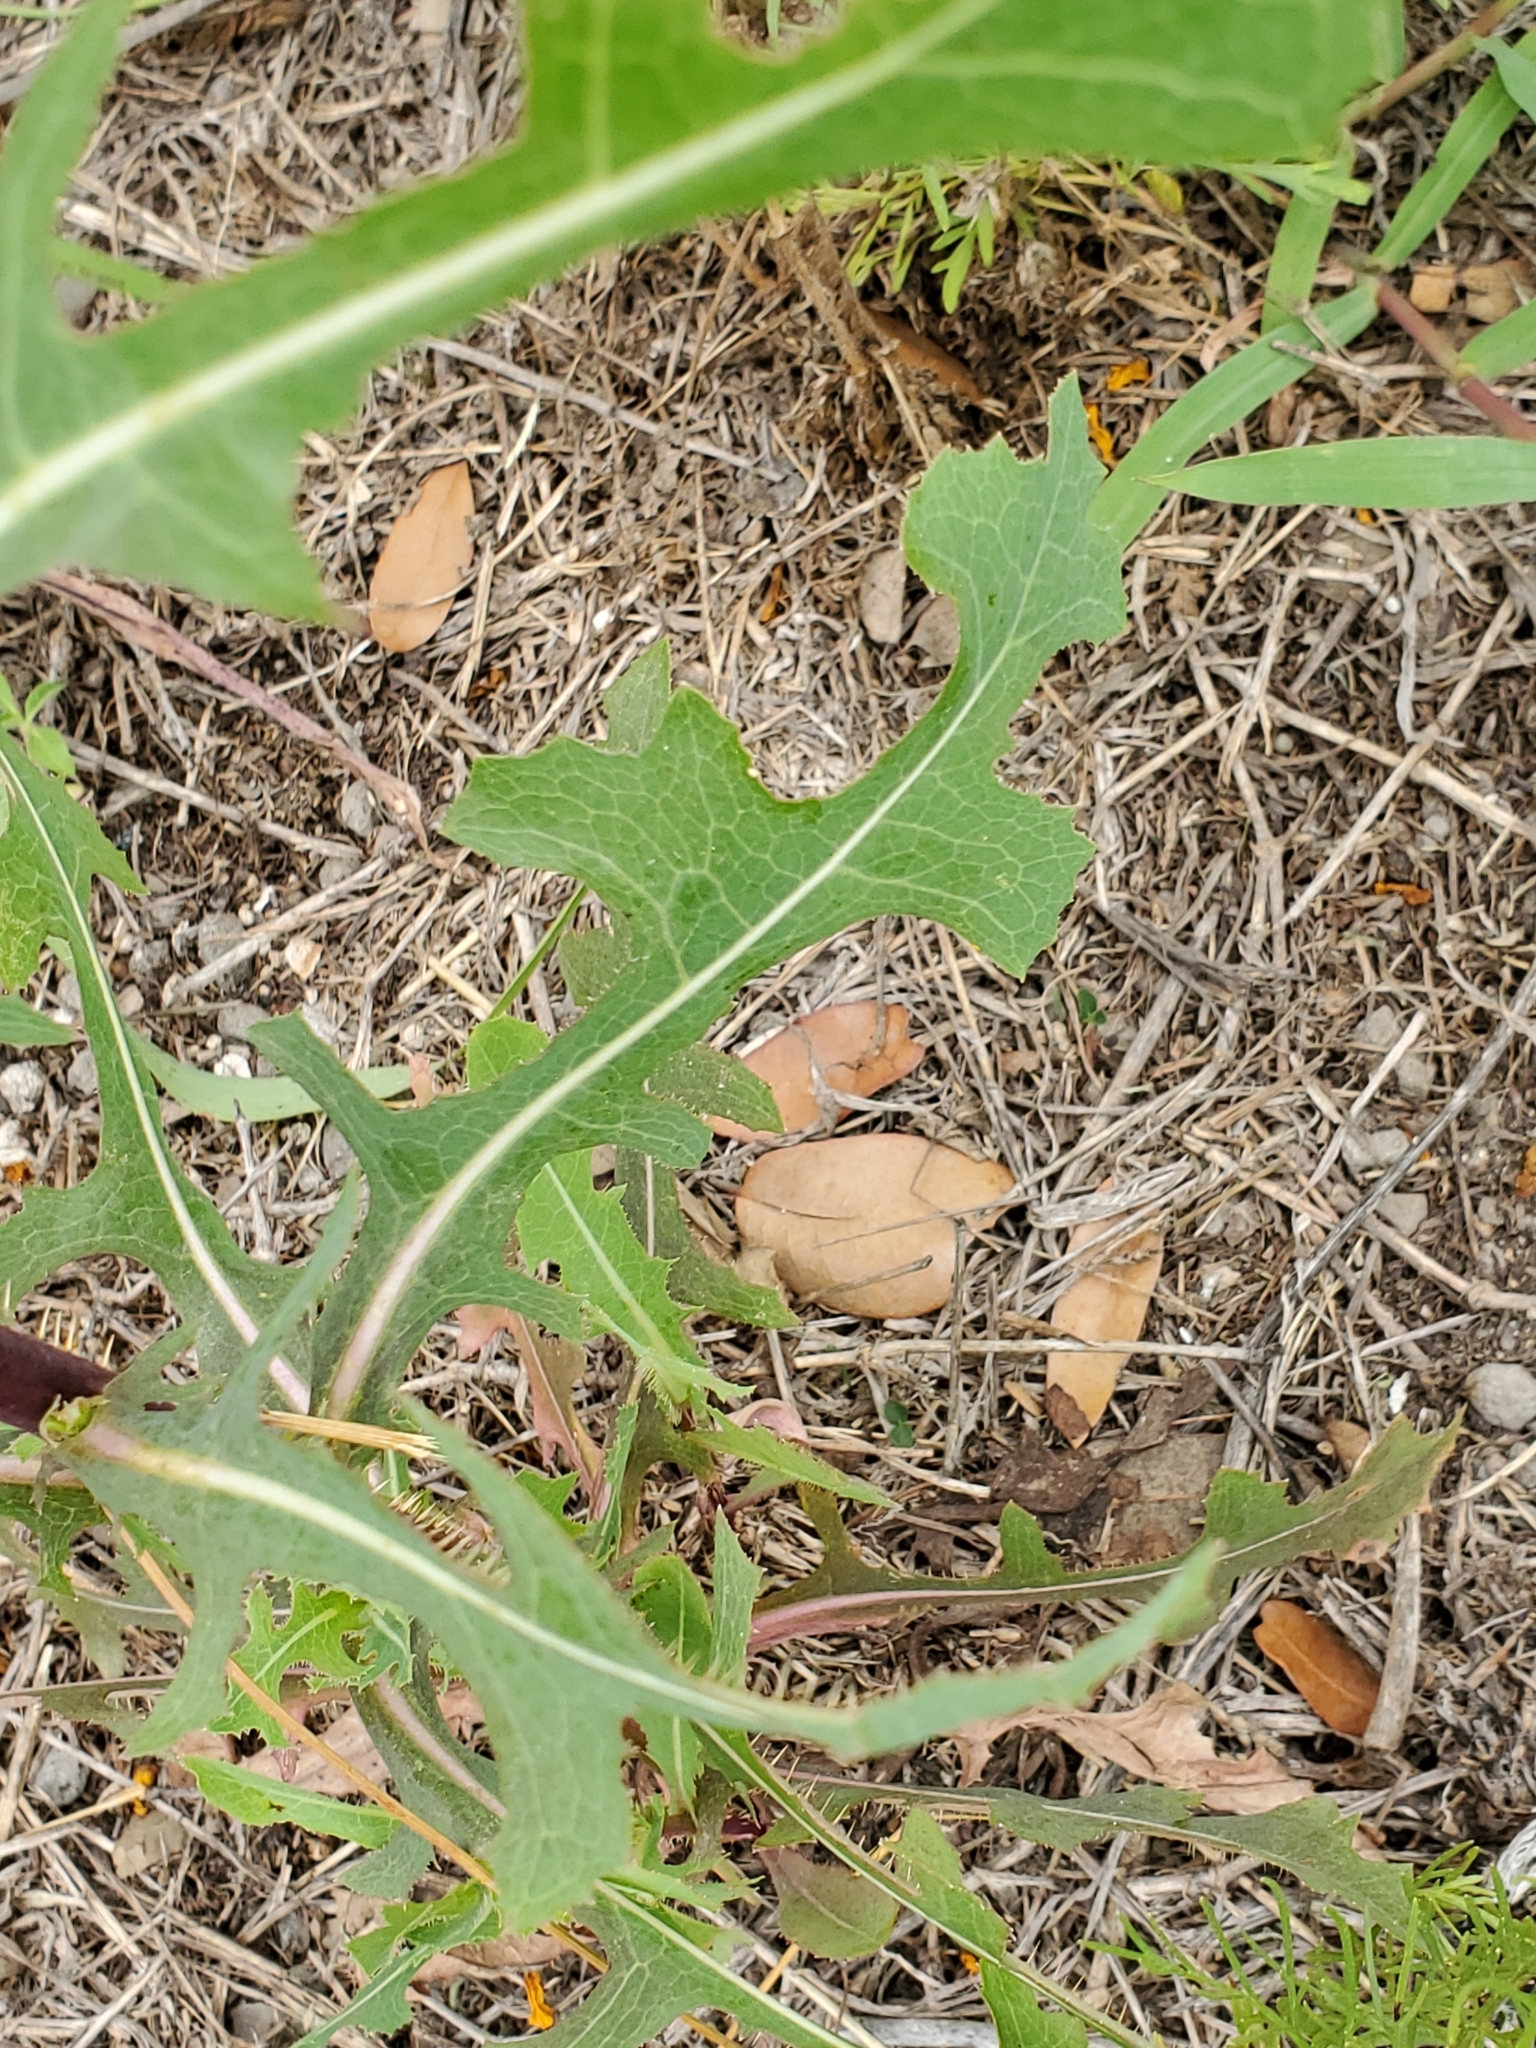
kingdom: Plantae
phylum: Tracheophyta
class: Magnoliopsida
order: Asterales
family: Asteraceae
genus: Lactuca
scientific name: Lactuca serriola
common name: Prickly lettuce
